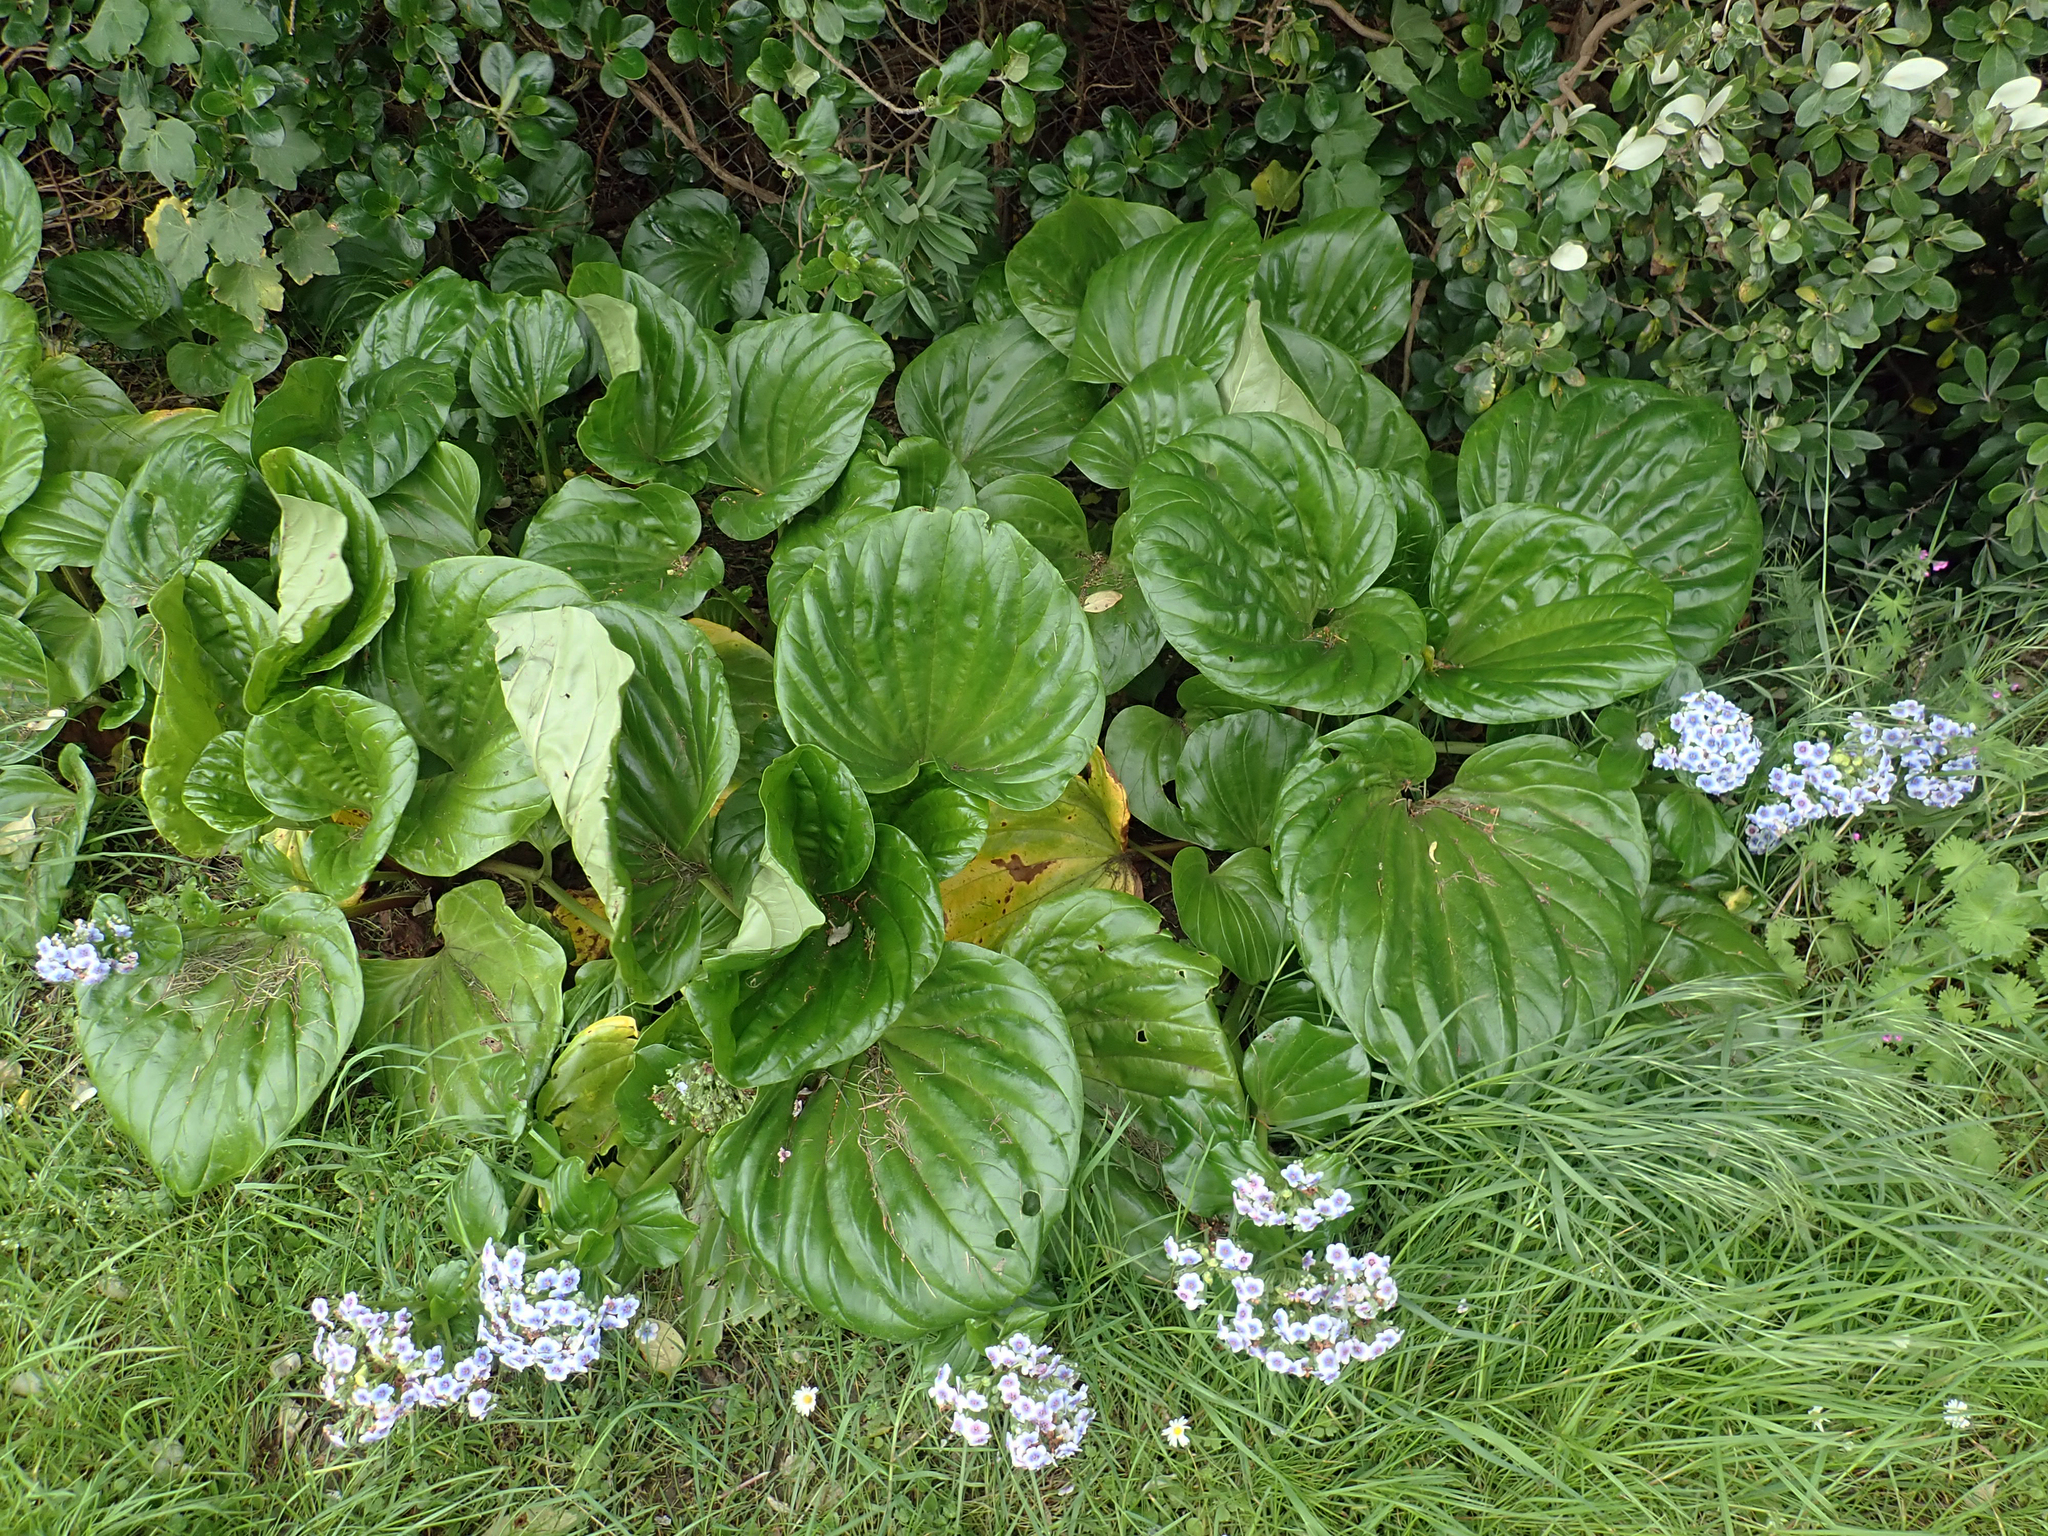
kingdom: Plantae
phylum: Tracheophyta
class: Magnoliopsida
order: Boraginales
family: Boraginaceae
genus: Myosotidium
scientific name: Myosotidium hortensia
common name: Giant forget-me-not
